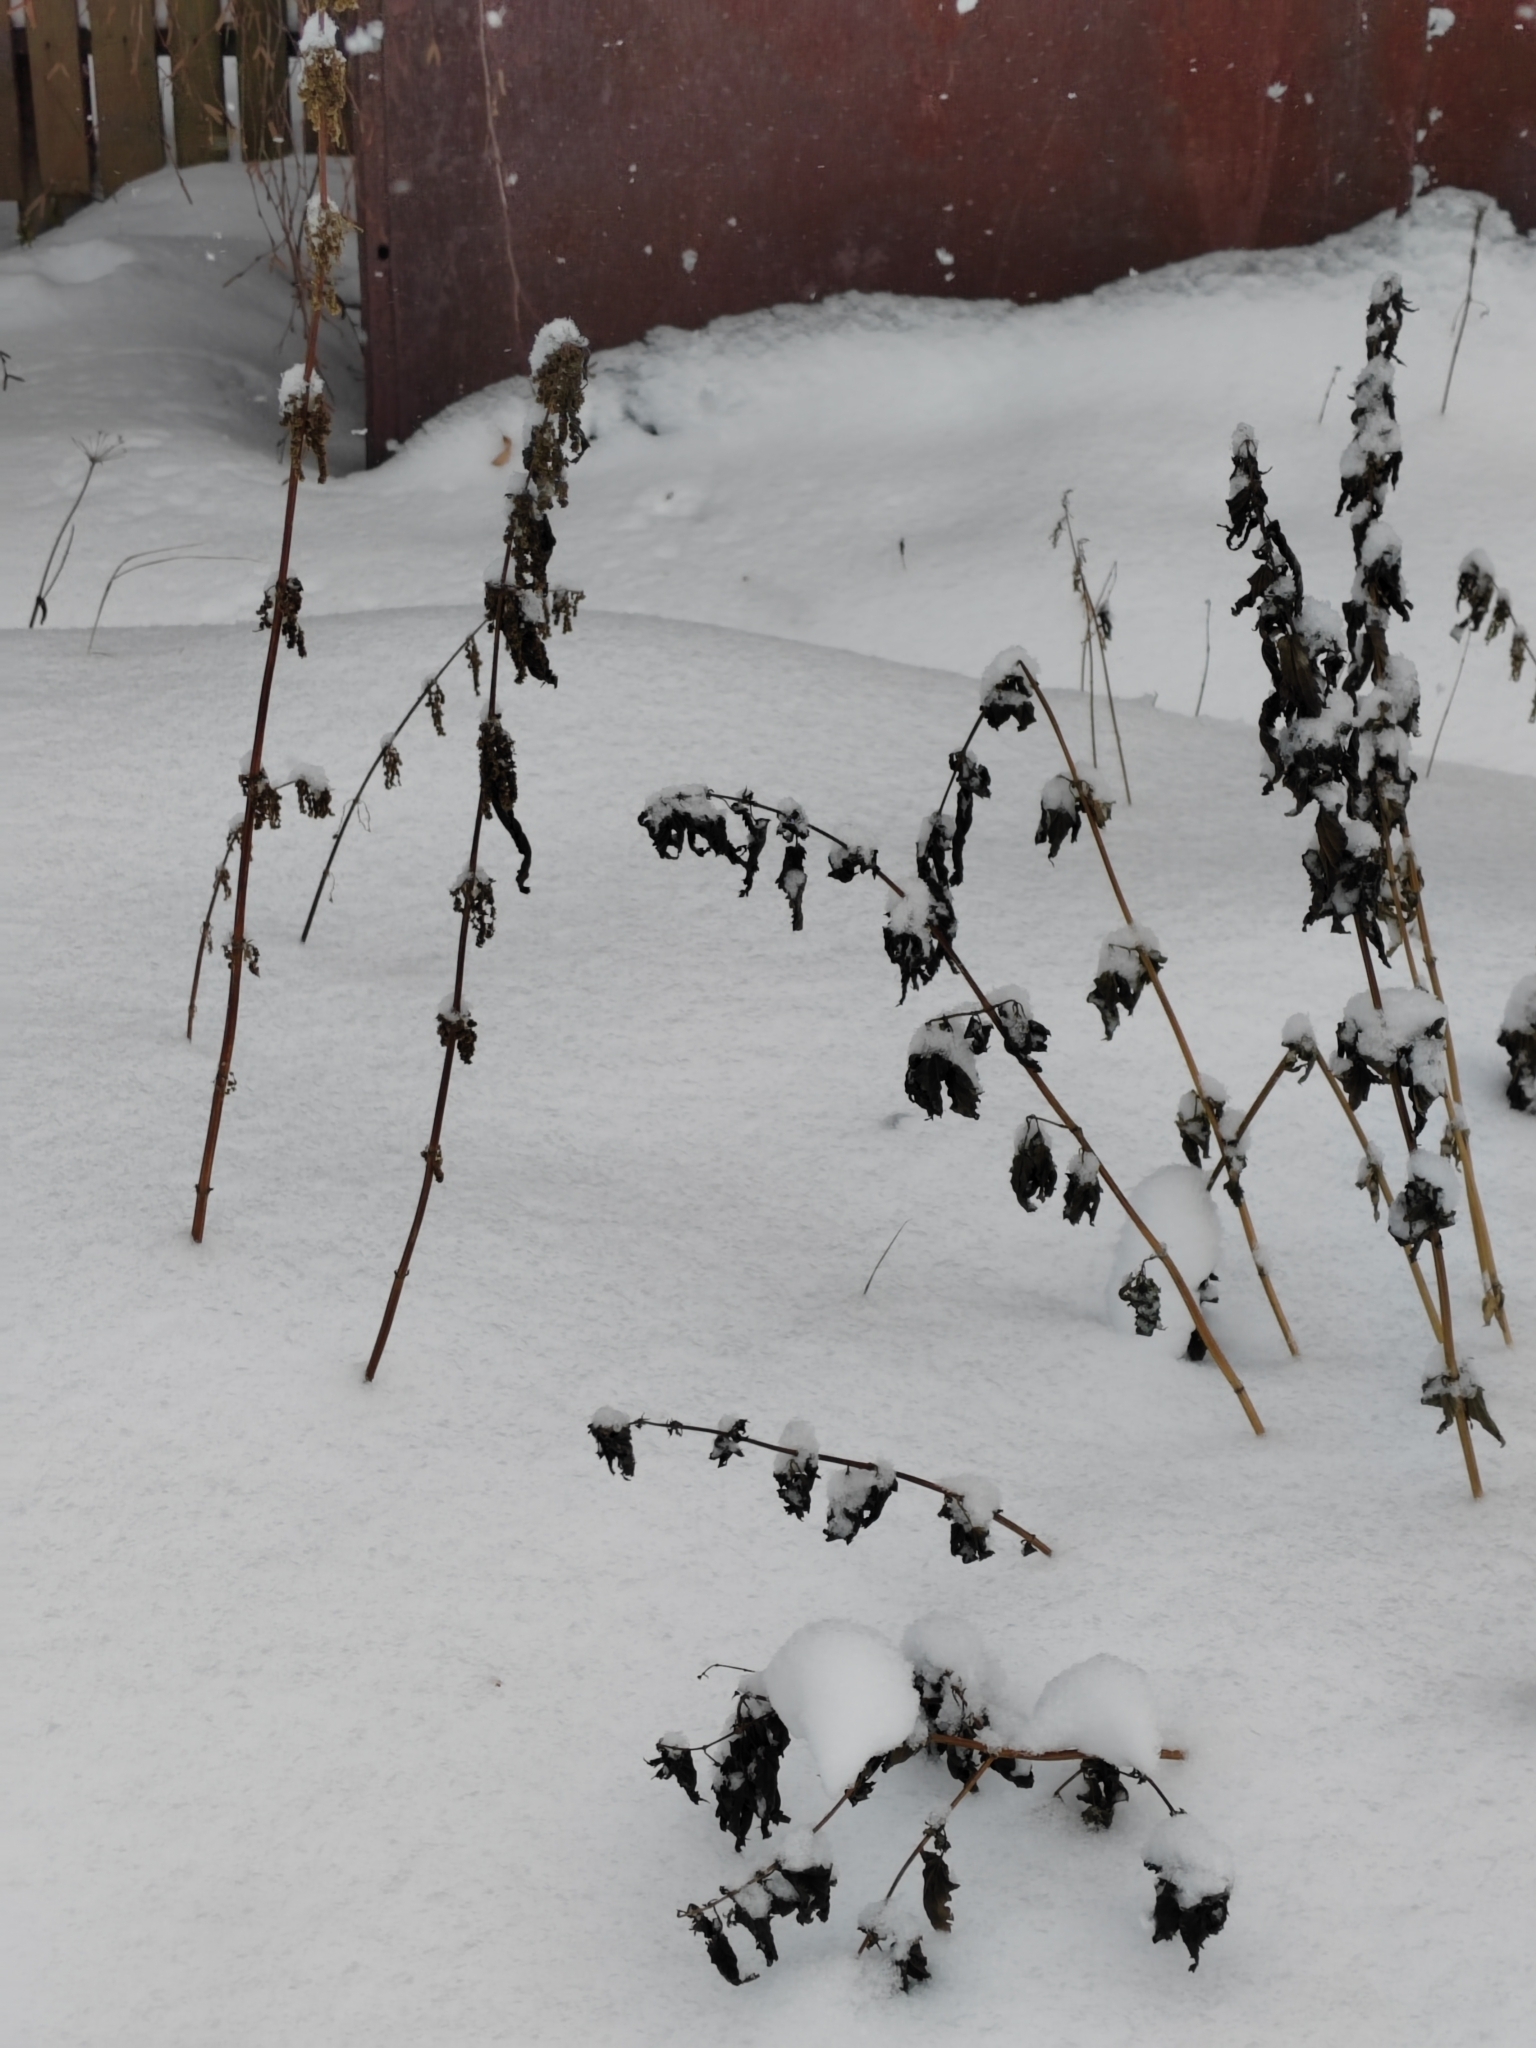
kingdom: Plantae
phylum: Tracheophyta
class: Magnoliopsida
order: Rosales
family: Urticaceae
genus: Urtica
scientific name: Urtica dioica
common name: Common nettle
